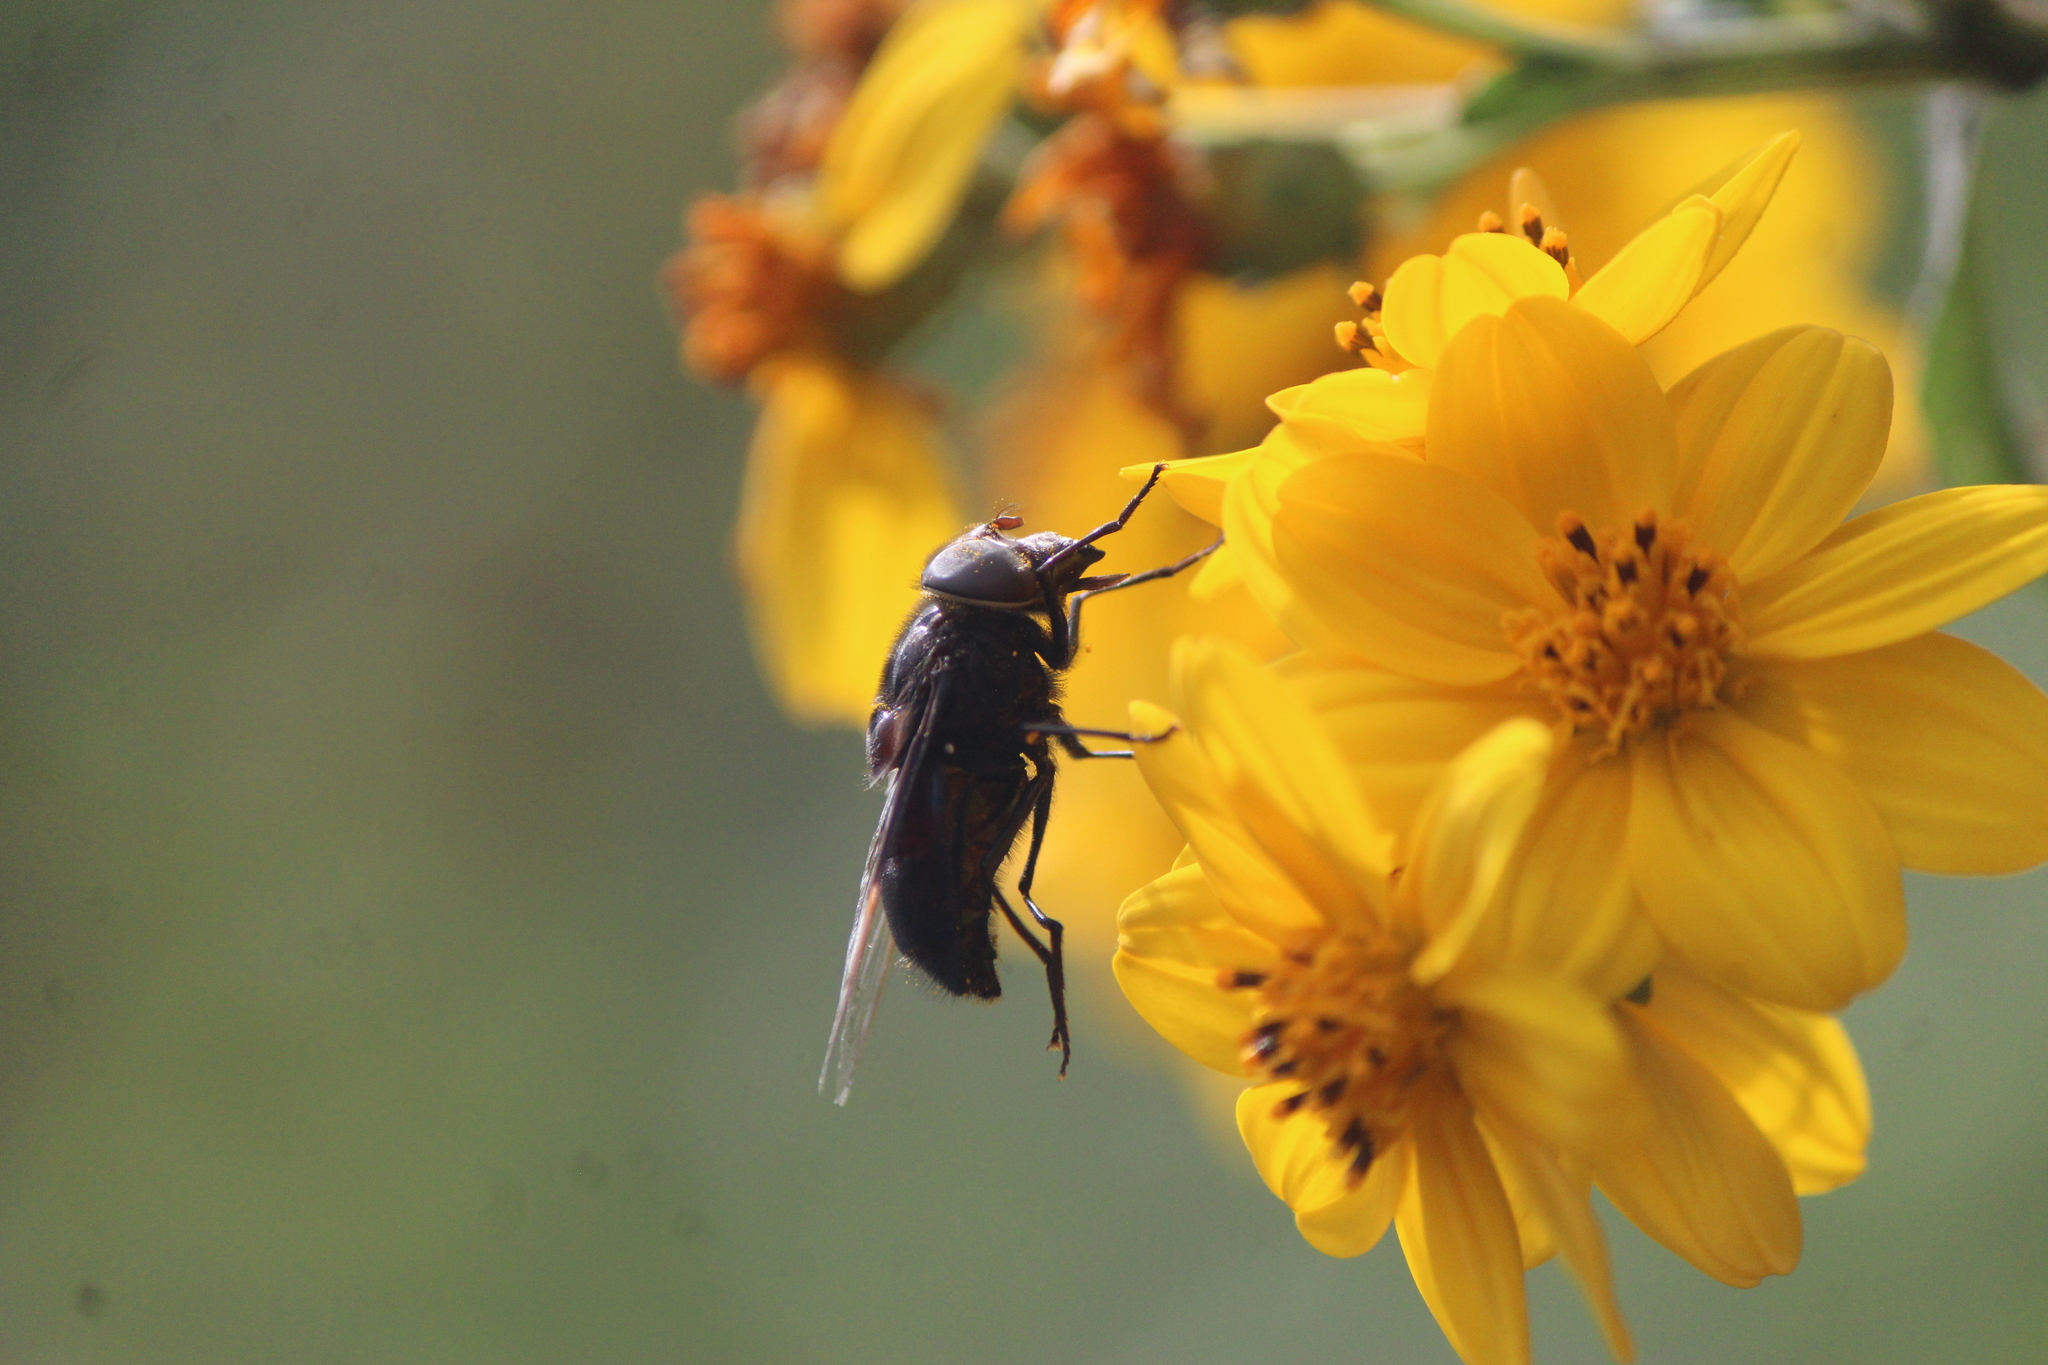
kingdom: Animalia
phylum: Arthropoda
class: Insecta
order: Diptera
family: Syrphidae
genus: Copestylum
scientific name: Copestylum violaceum
